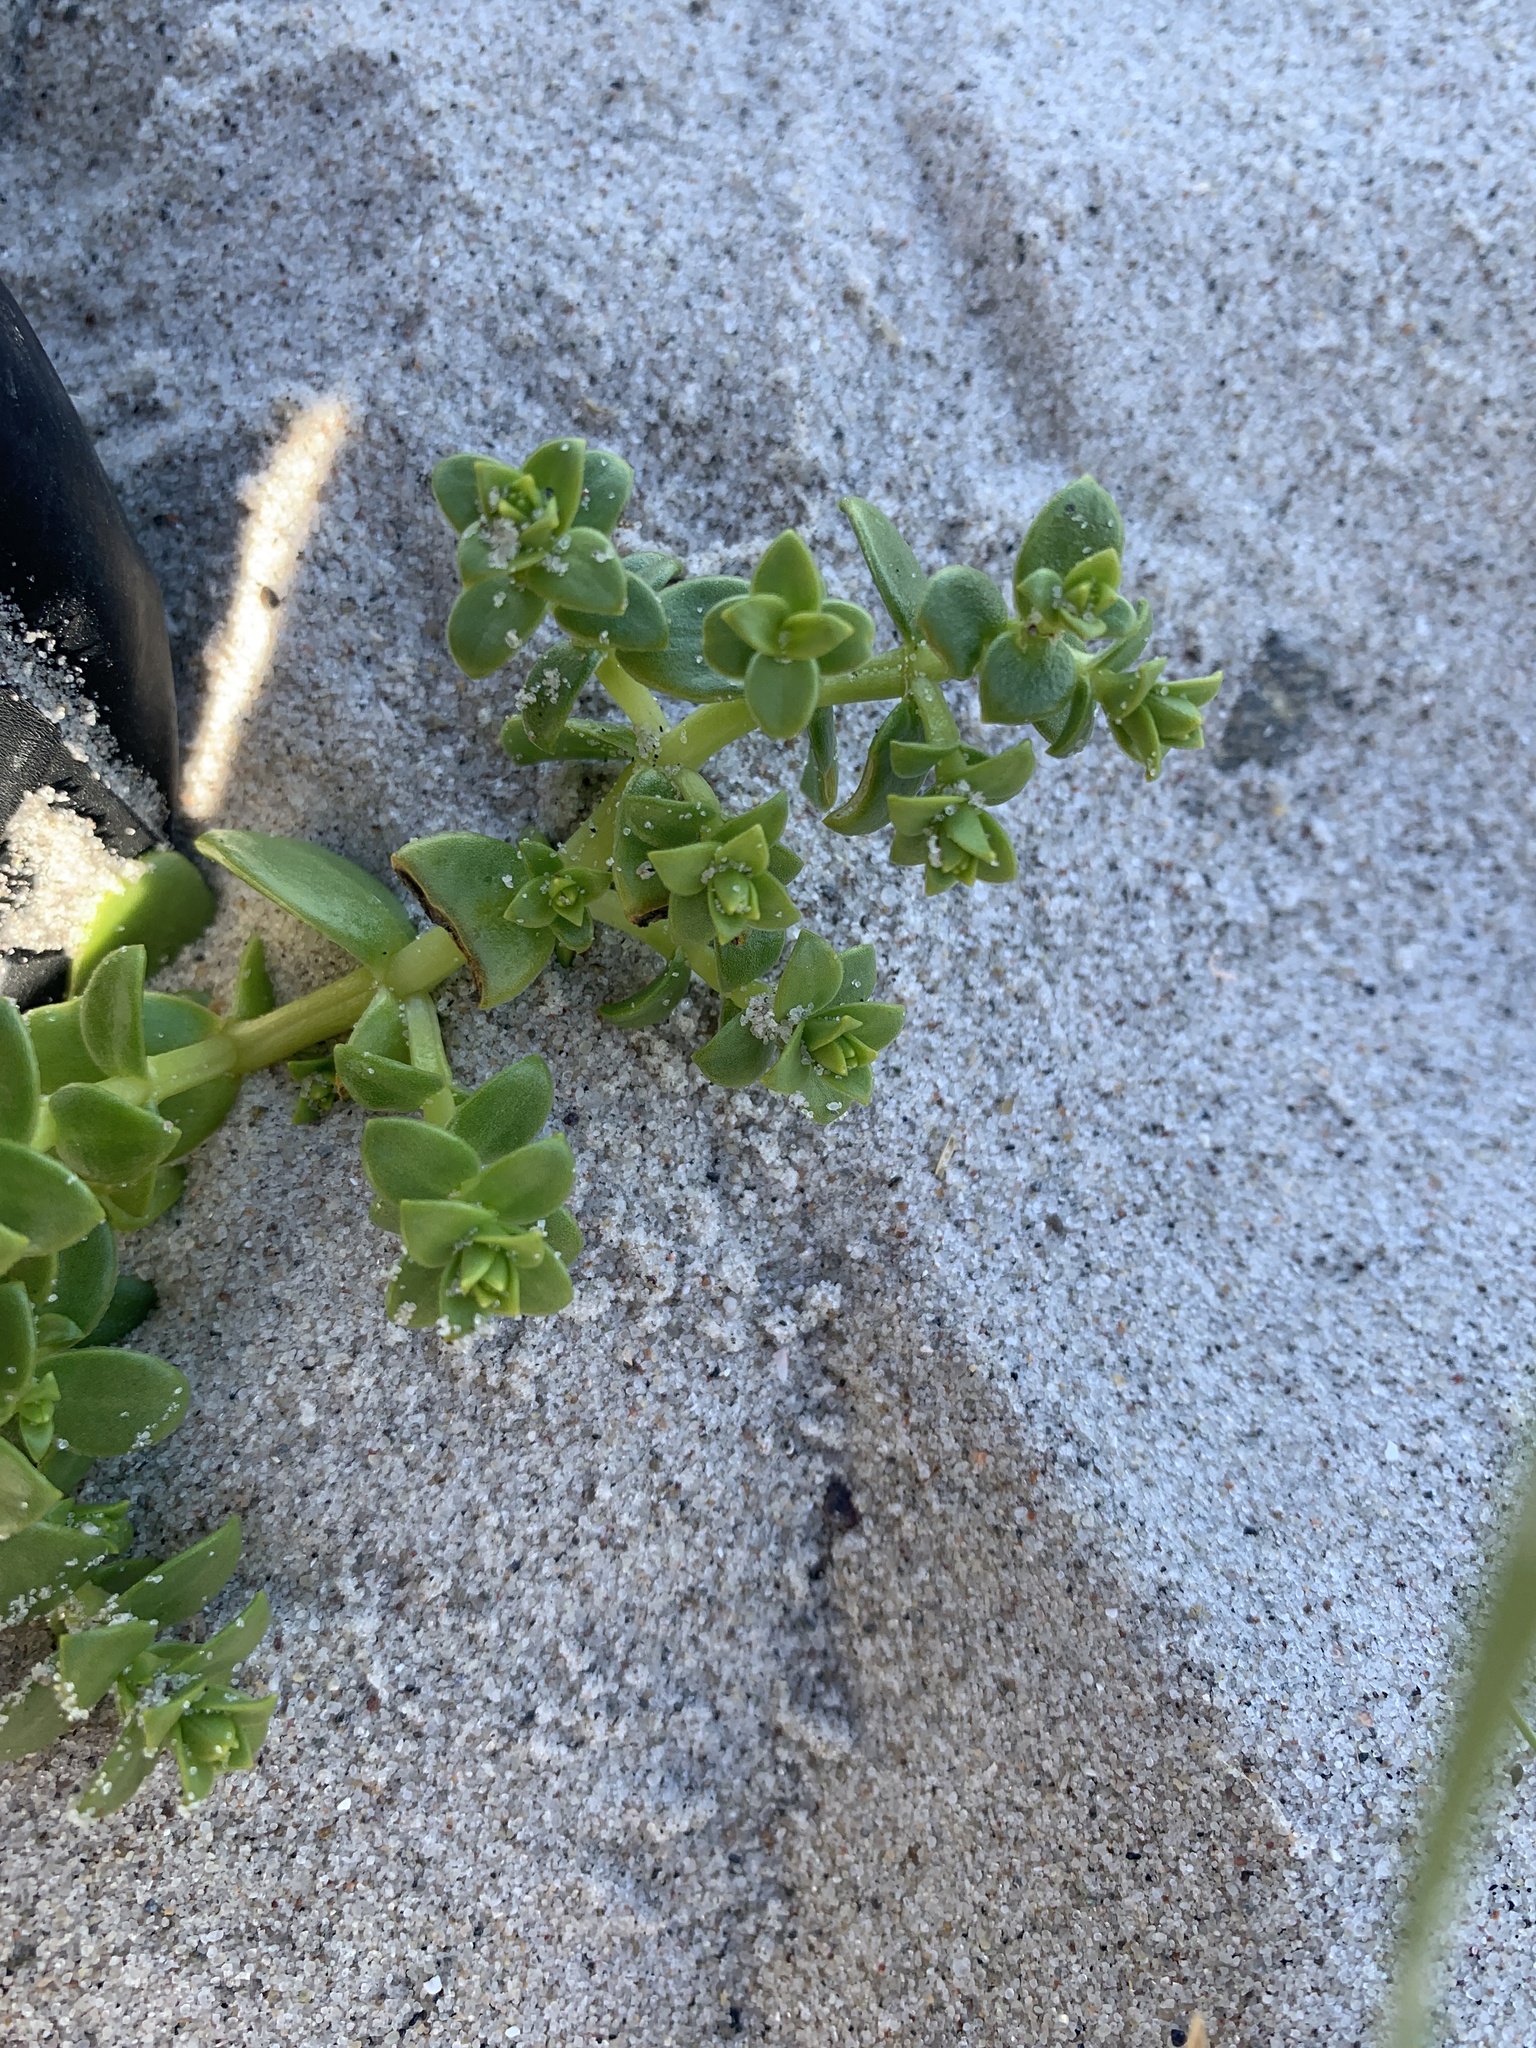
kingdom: Plantae
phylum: Tracheophyta
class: Magnoliopsida
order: Caryophyllales
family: Caryophyllaceae
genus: Honckenya
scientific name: Honckenya peploides
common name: Sea sandwort
